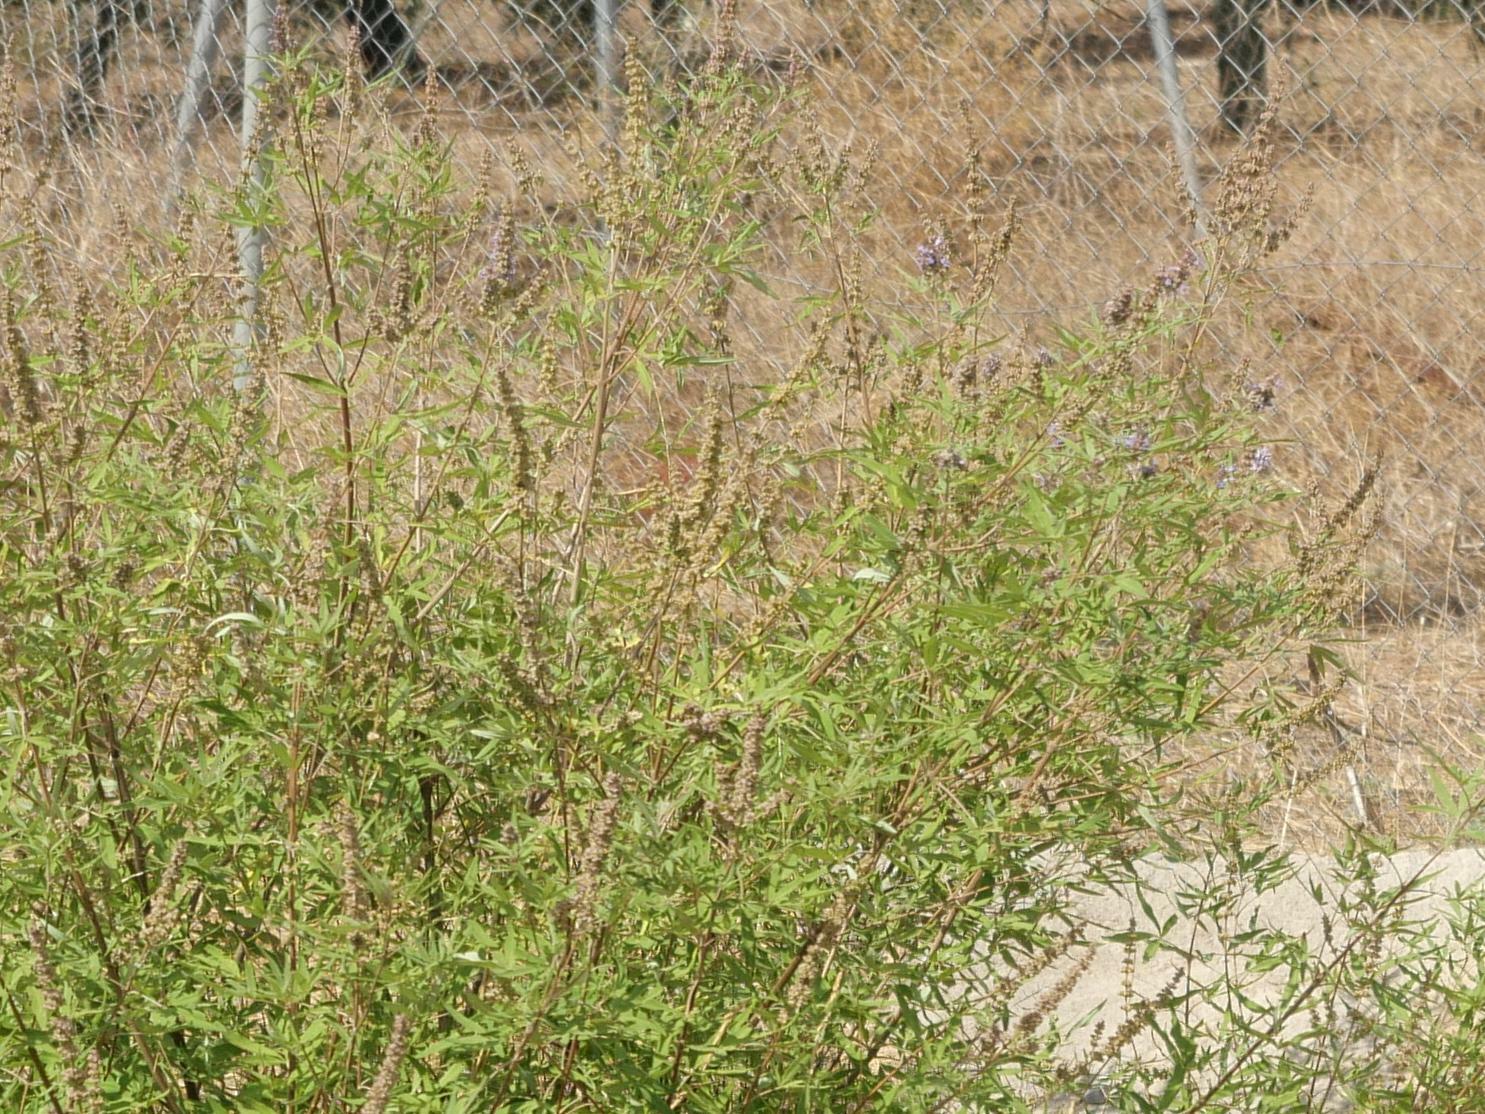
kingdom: Plantae
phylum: Tracheophyta
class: Magnoliopsida
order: Lamiales
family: Lamiaceae
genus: Vitex
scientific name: Vitex agnus-castus
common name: Chasteberry
